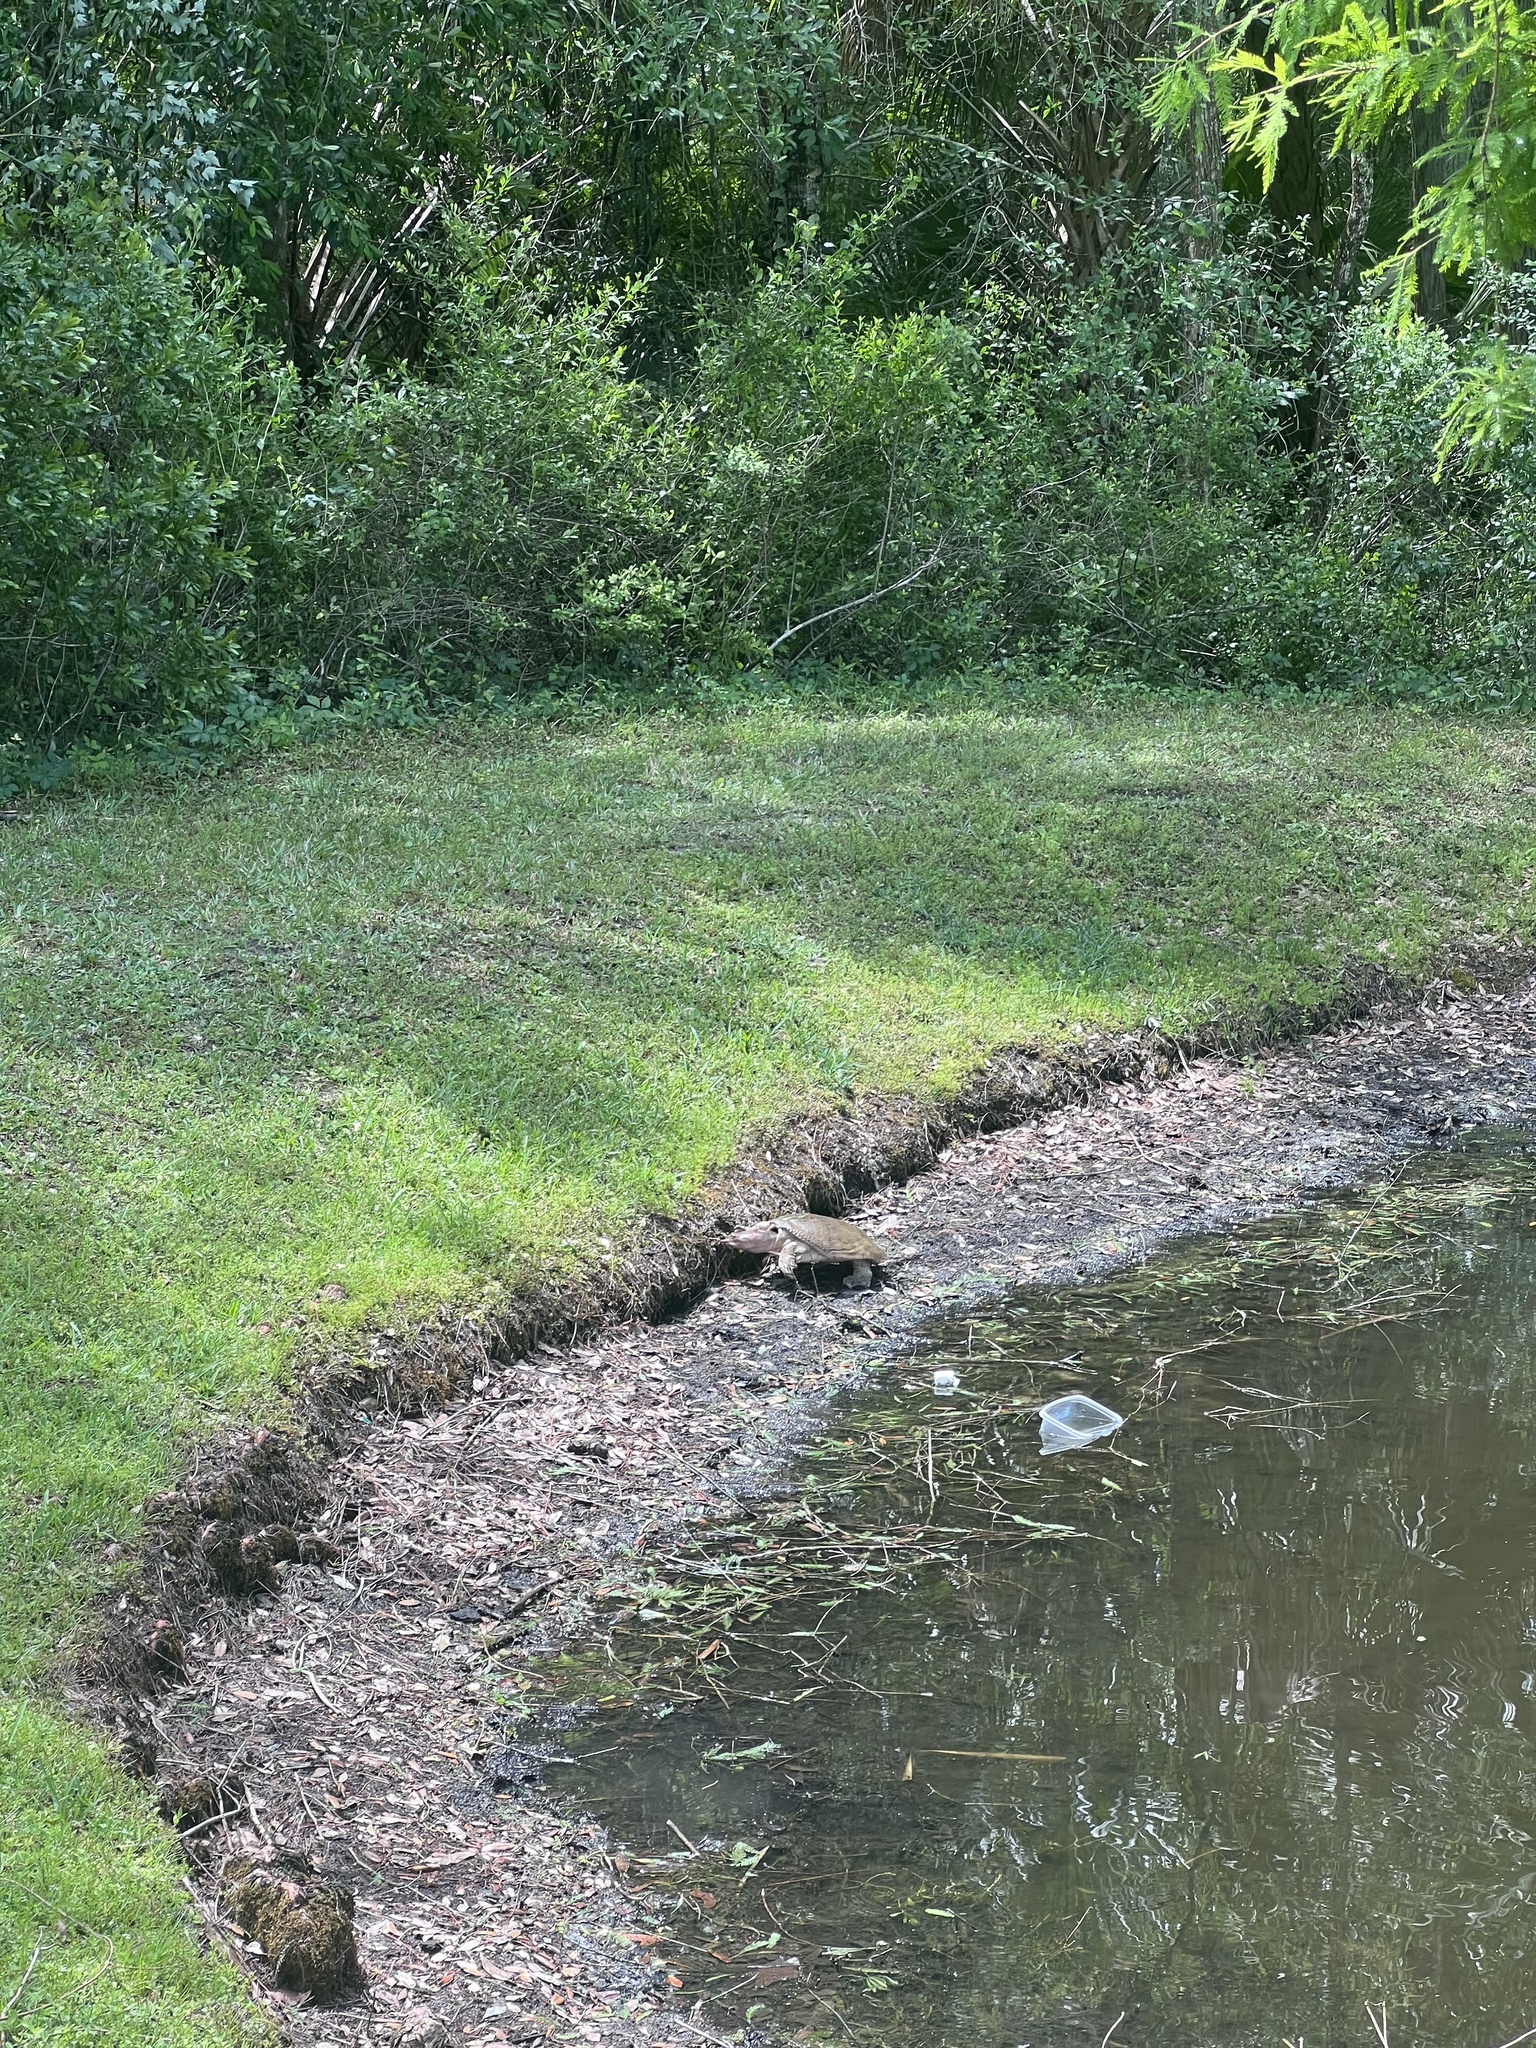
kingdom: Animalia
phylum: Chordata
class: Testudines
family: Trionychidae
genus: Apalone
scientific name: Apalone ferox
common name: Florida softshell turtle
